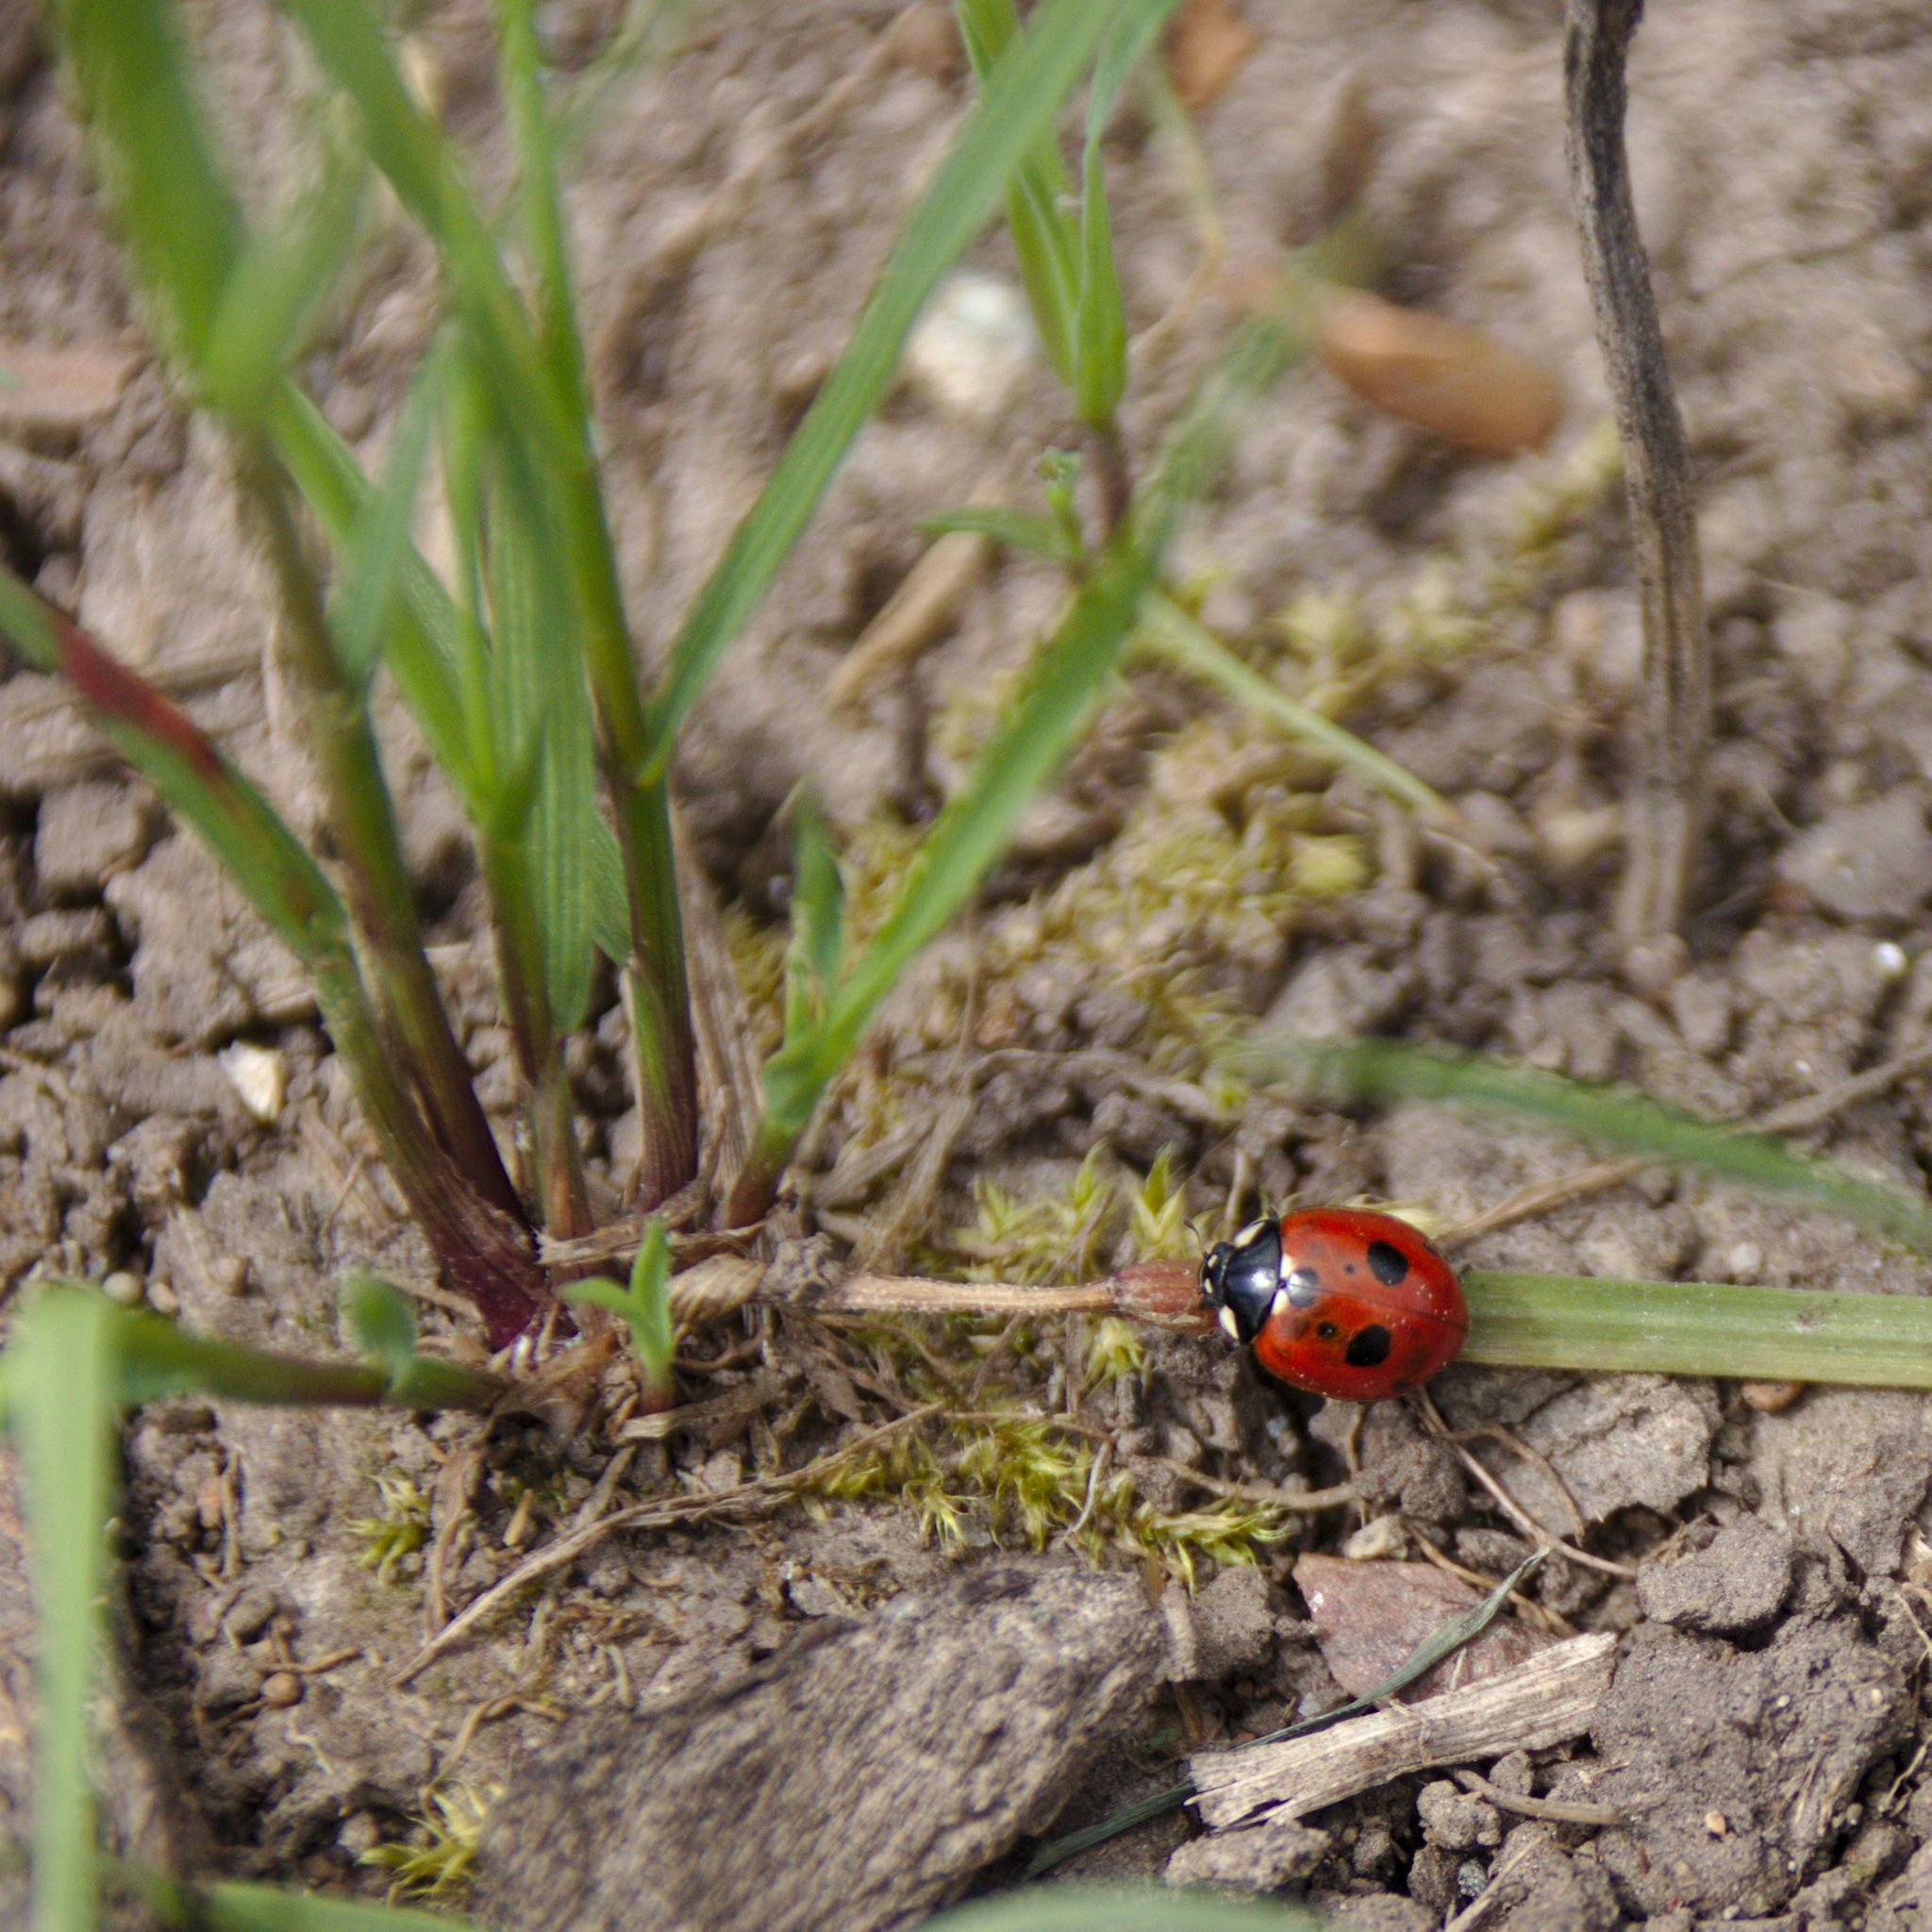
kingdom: Animalia
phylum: Arthropoda
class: Insecta
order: Coleoptera
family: Coccinellidae
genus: Coccinella
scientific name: Coccinella quinquepunctata
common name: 5-spot ladybird
